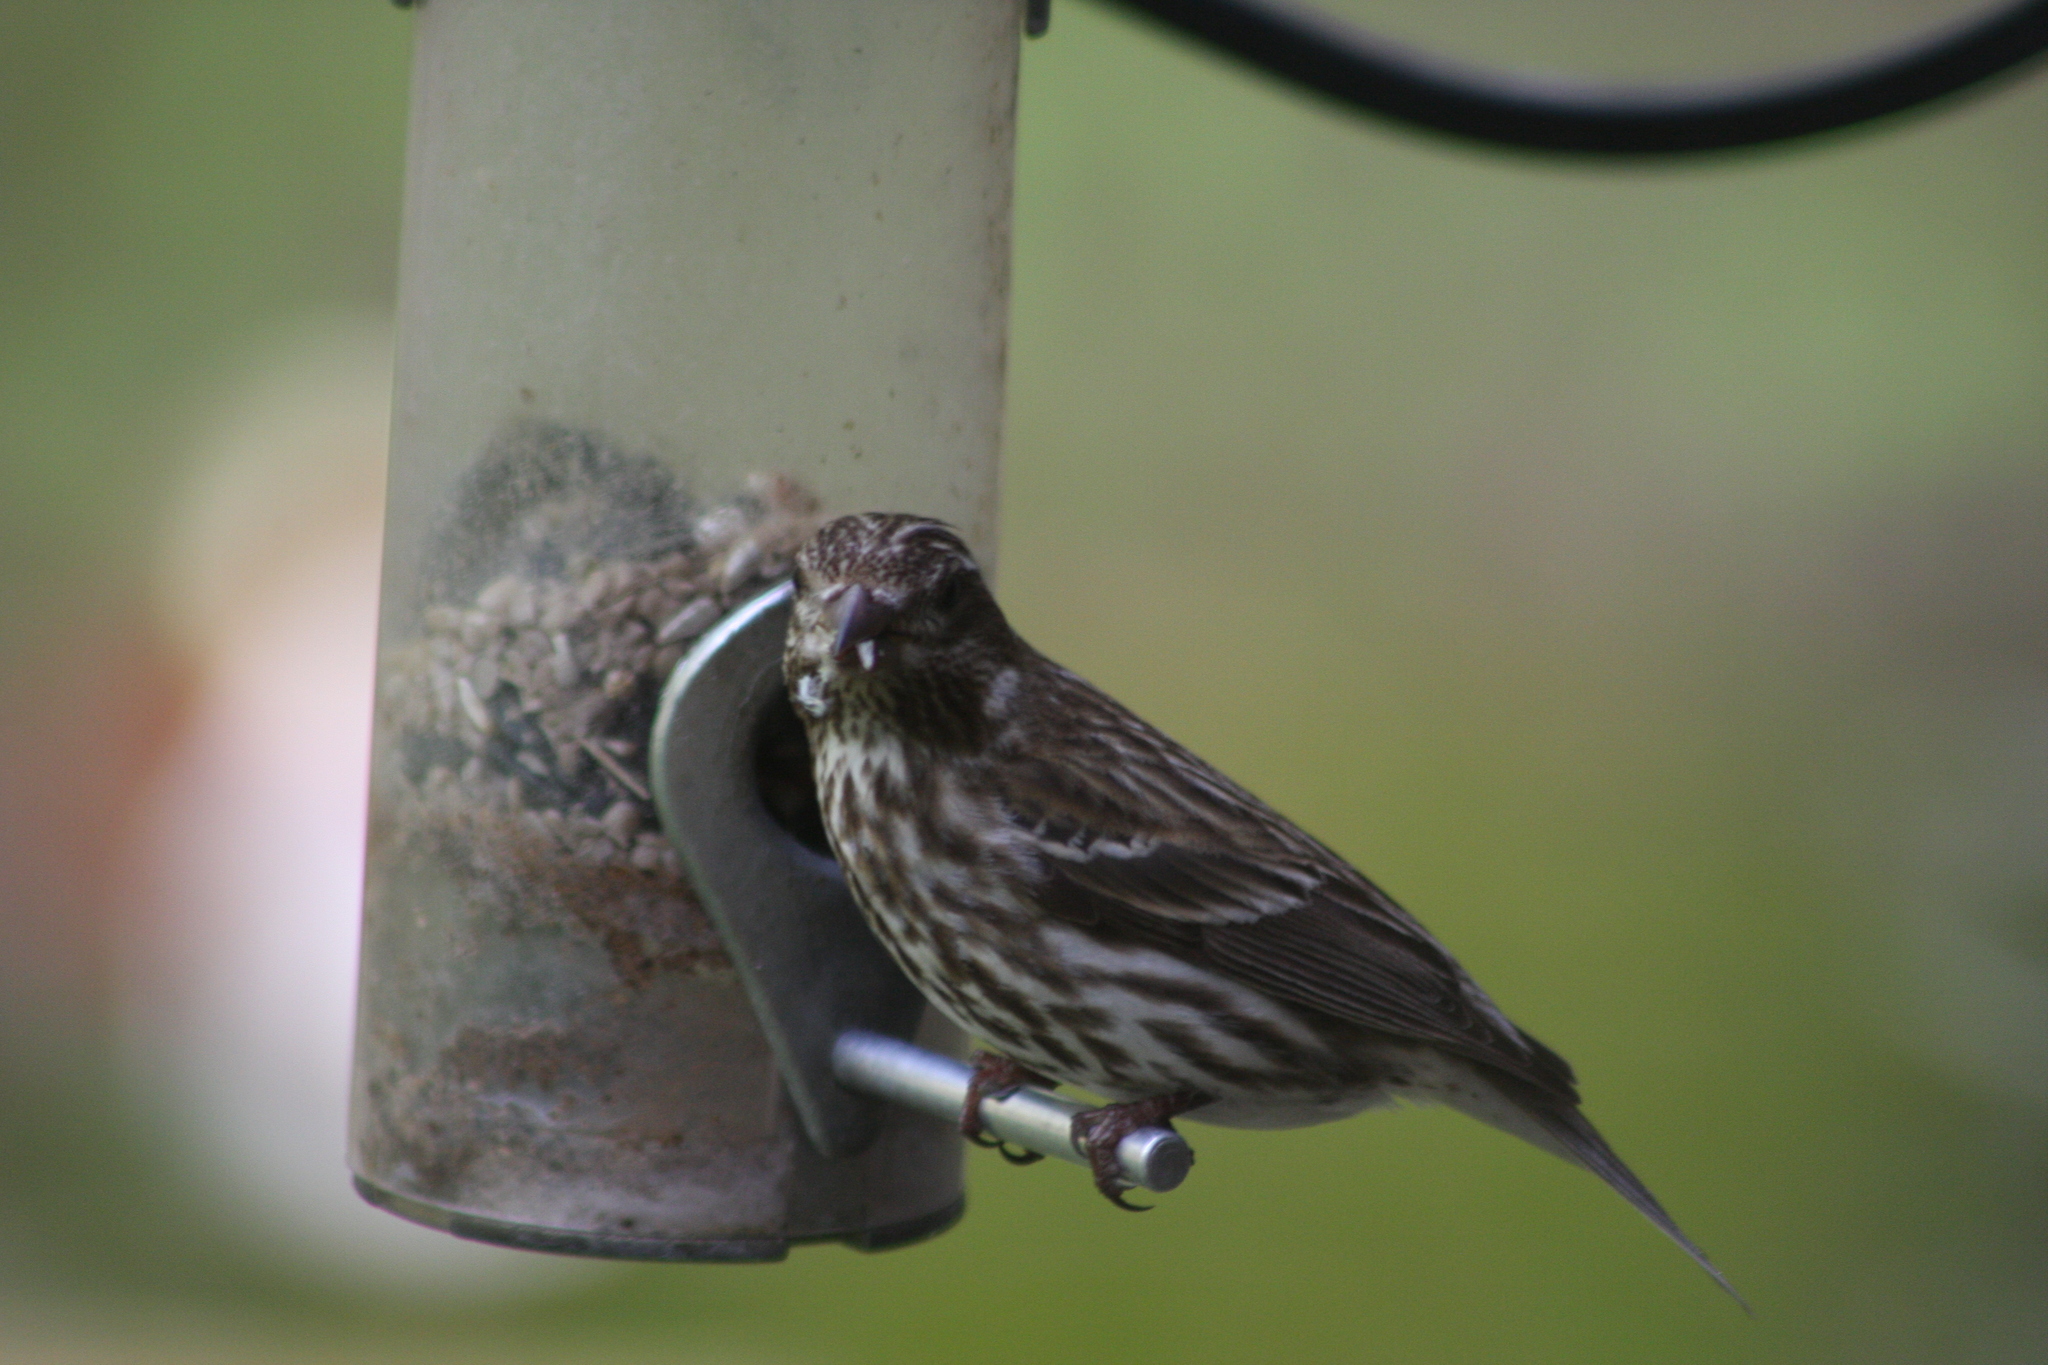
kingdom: Animalia
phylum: Chordata
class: Aves
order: Passeriformes
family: Fringillidae
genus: Haemorhous
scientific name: Haemorhous purpureus
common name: Purple finch
